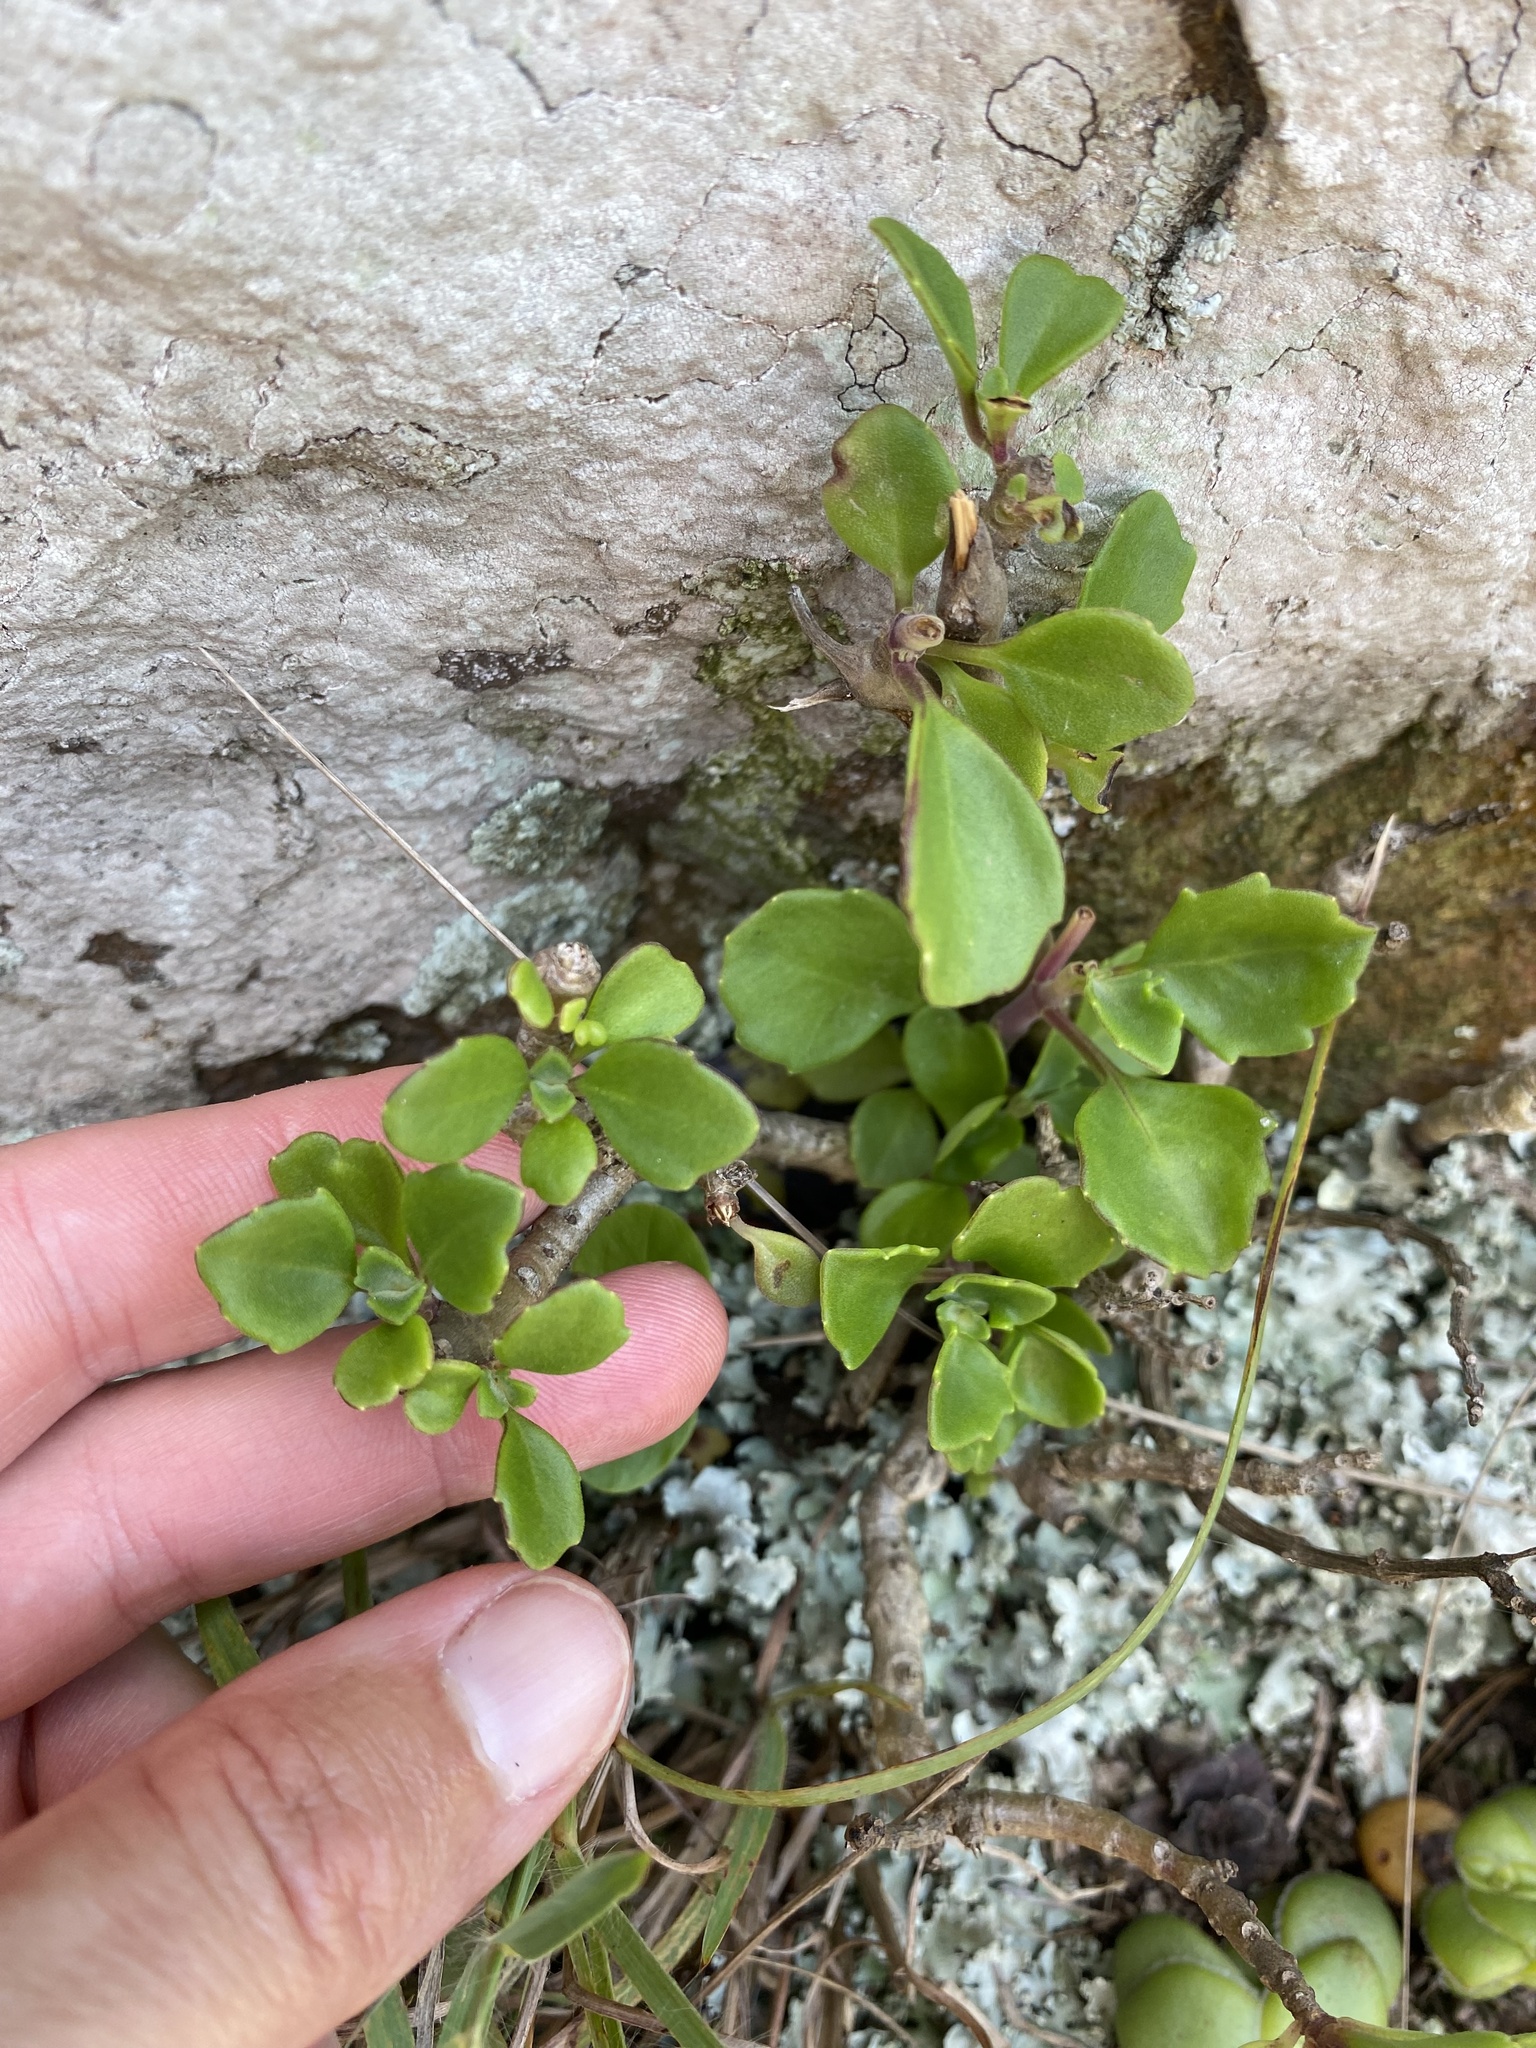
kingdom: Plantae
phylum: Tracheophyta
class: Magnoliopsida
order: Lamiales
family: Lamiaceae
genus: Aeollanthus
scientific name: Aeollanthus parvifolius
